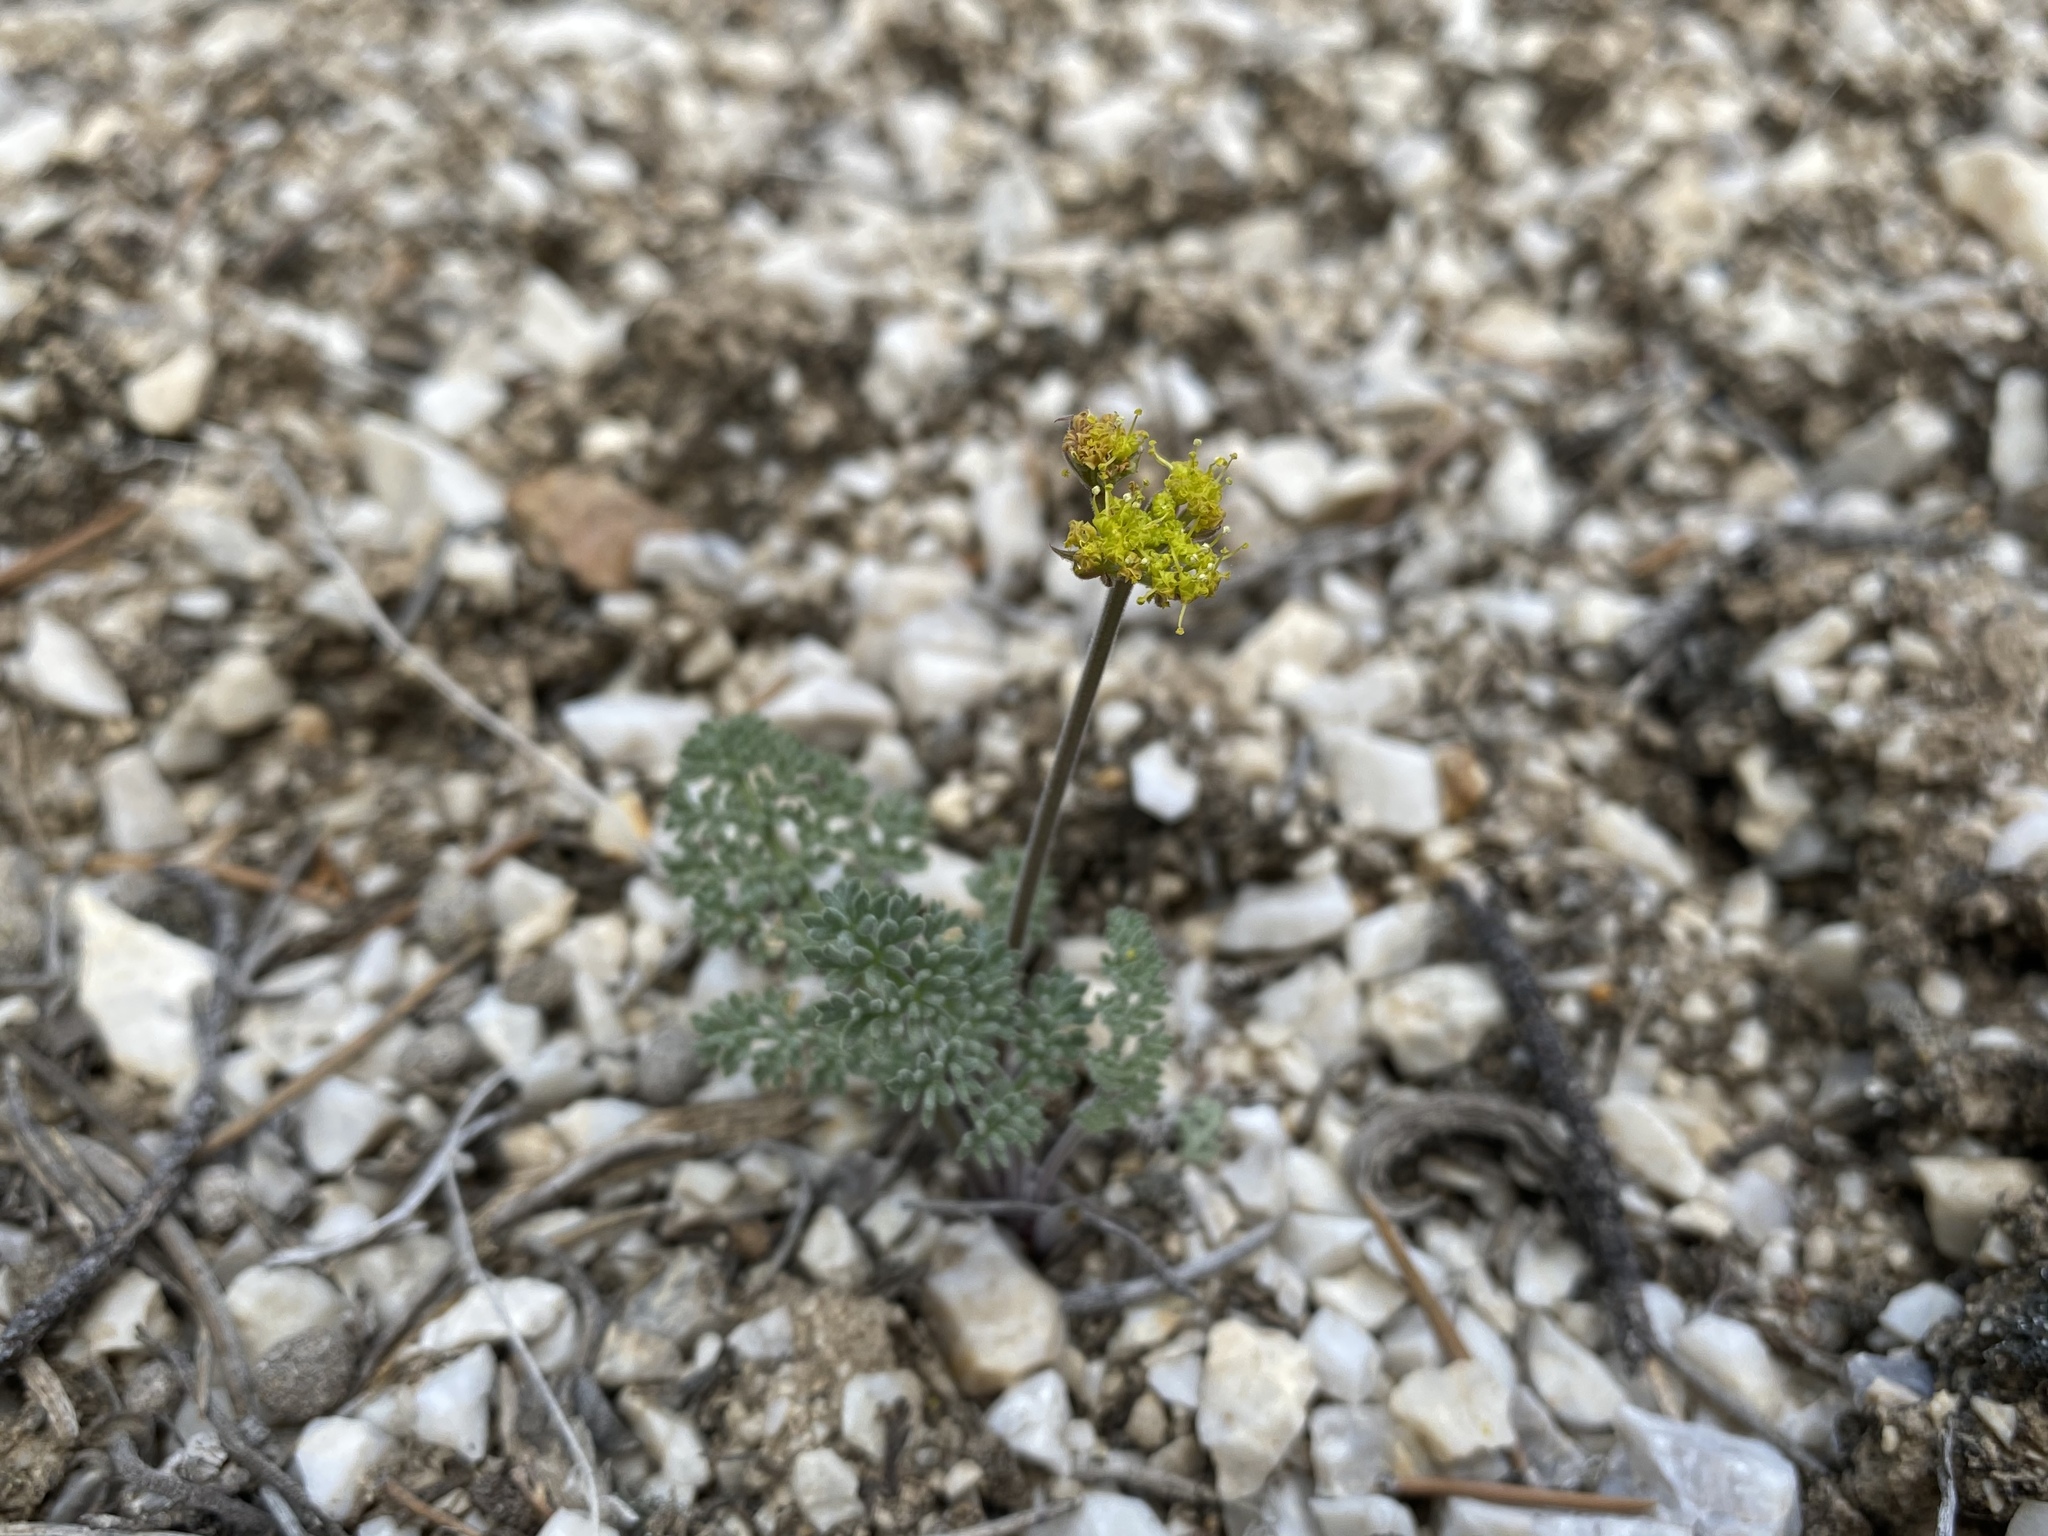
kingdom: Plantae
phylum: Tracheophyta
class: Magnoliopsida
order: Apiales
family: Apiaceae
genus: Lomatium
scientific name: Lomatium foeniculaceum
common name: Desert-parsley
